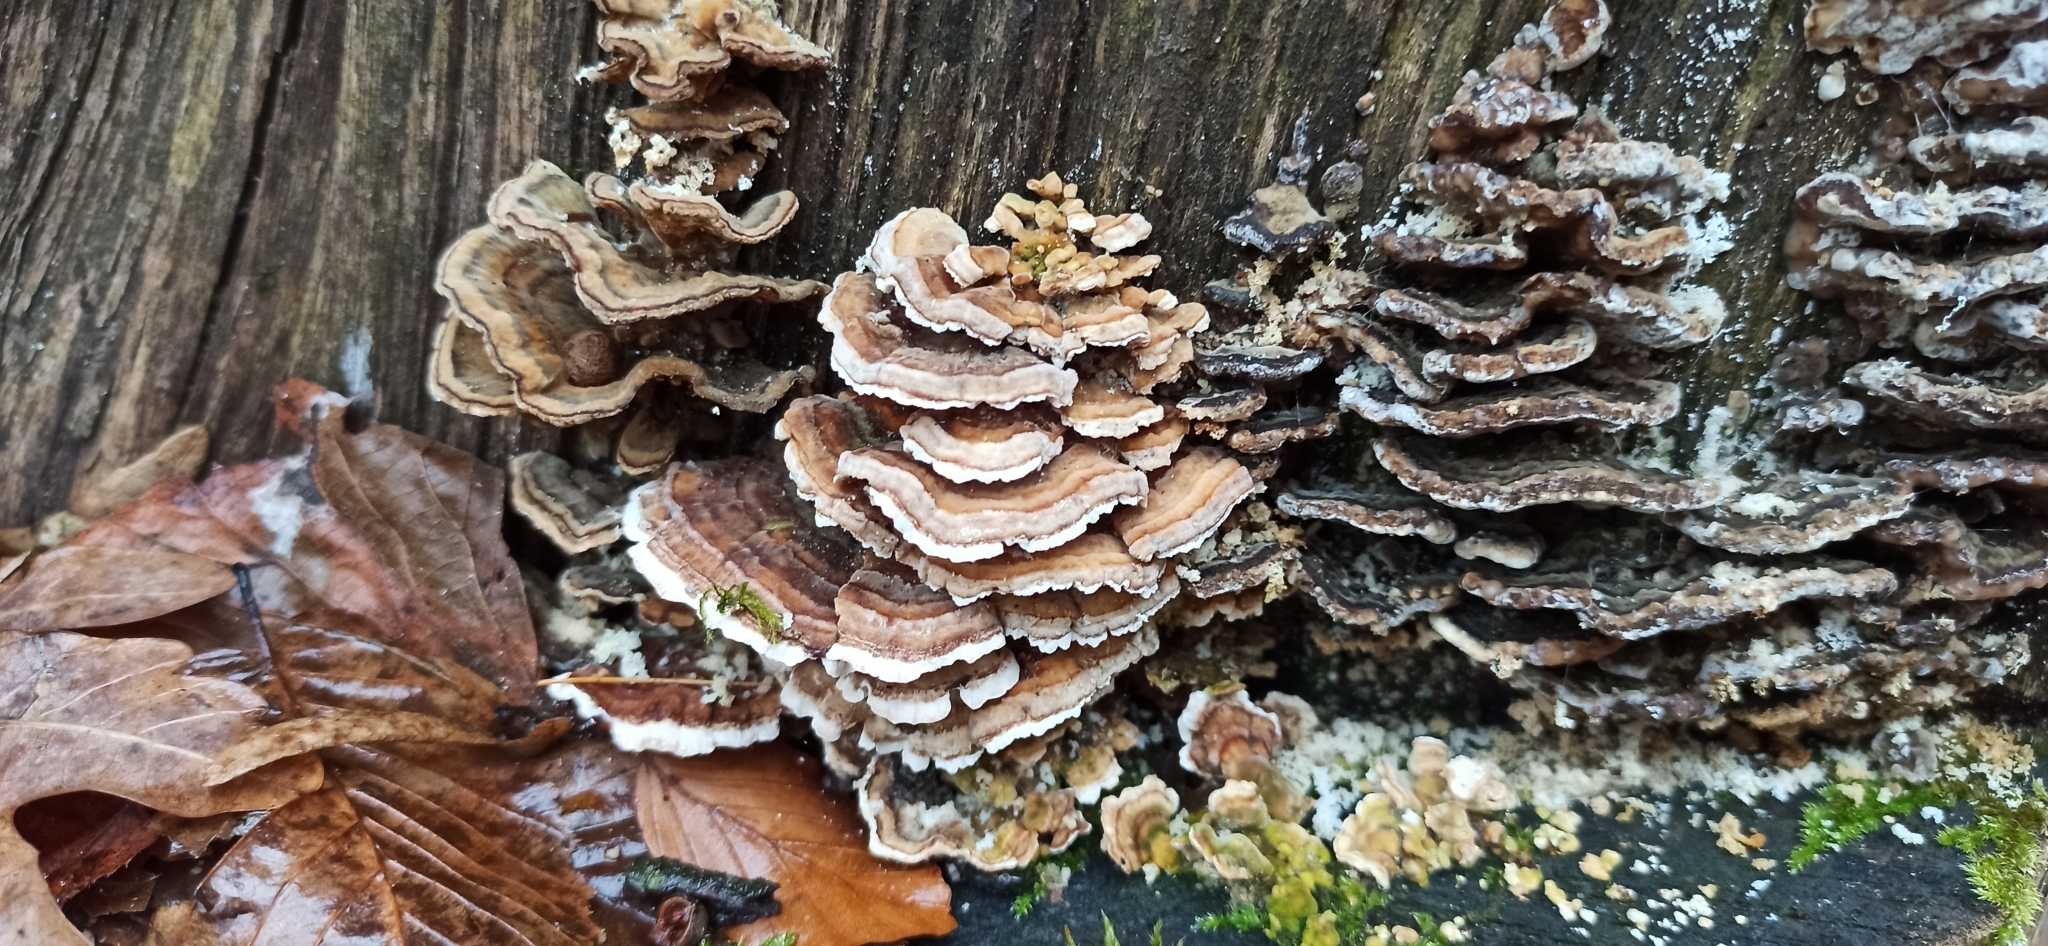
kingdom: Fungi
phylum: Basidiomycota
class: Agaricomycetes
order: Polyporales
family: Polyporaceae
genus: Trametes
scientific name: Trametes versicolor
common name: Turkeytail
